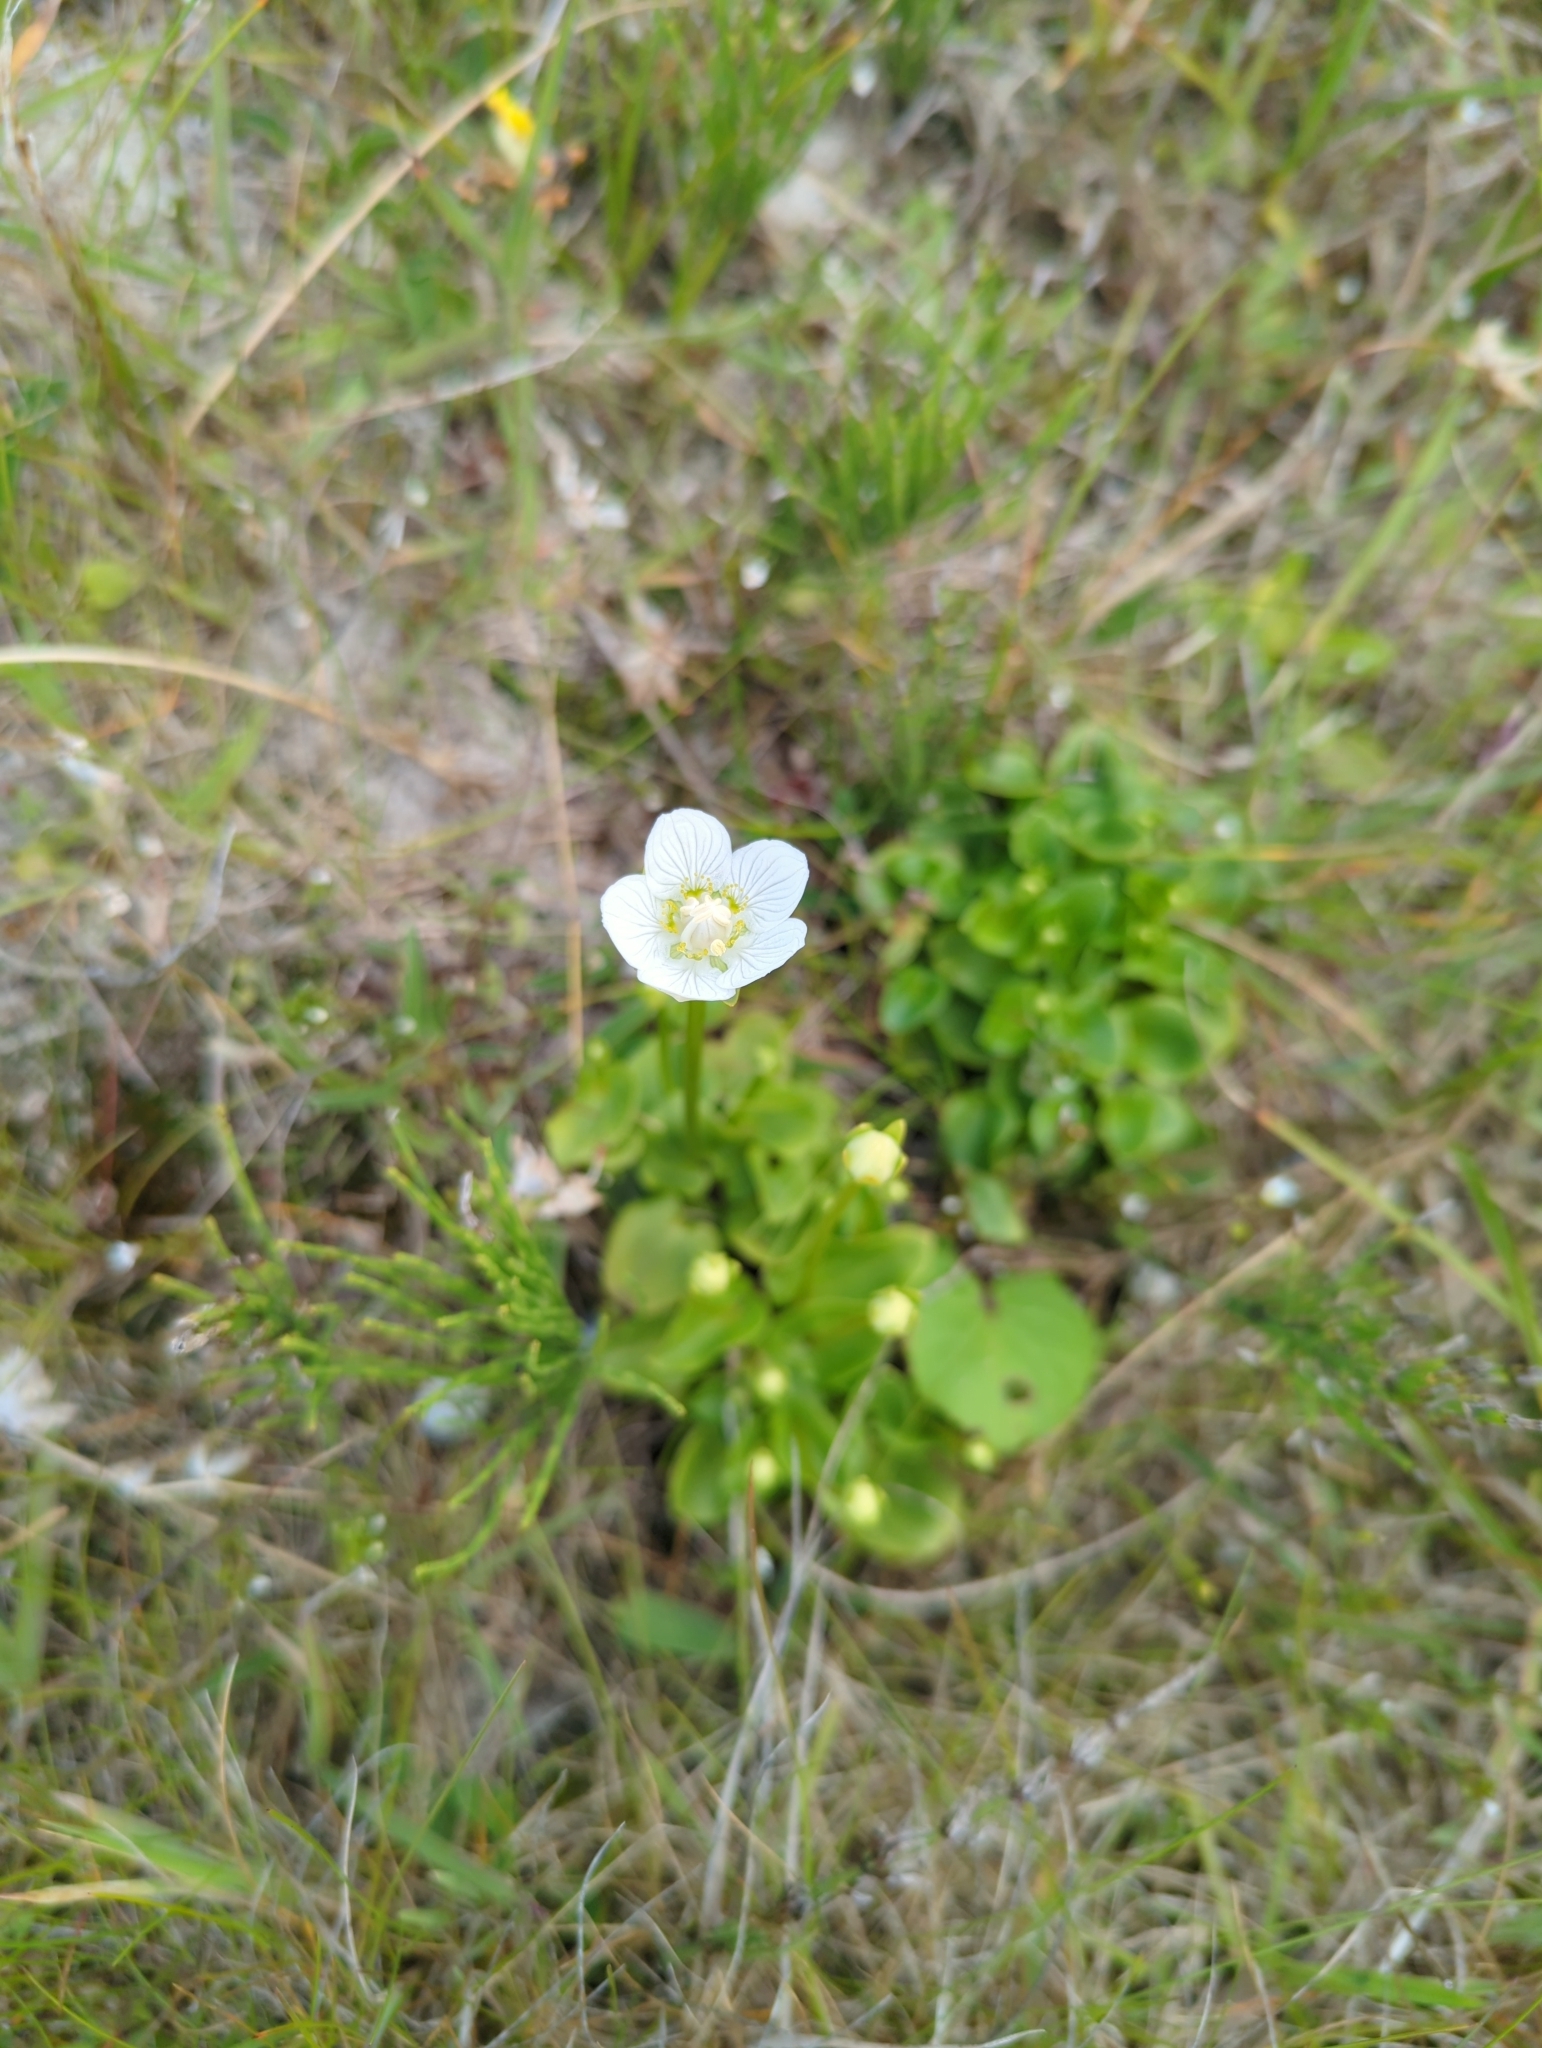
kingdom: Plantae
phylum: Tracheophyta
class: Magnoliopsida
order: Celastrales
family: Parnassiaceae
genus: Parnassia
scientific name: Parnassia palustris
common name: Grass-of-parnassus
